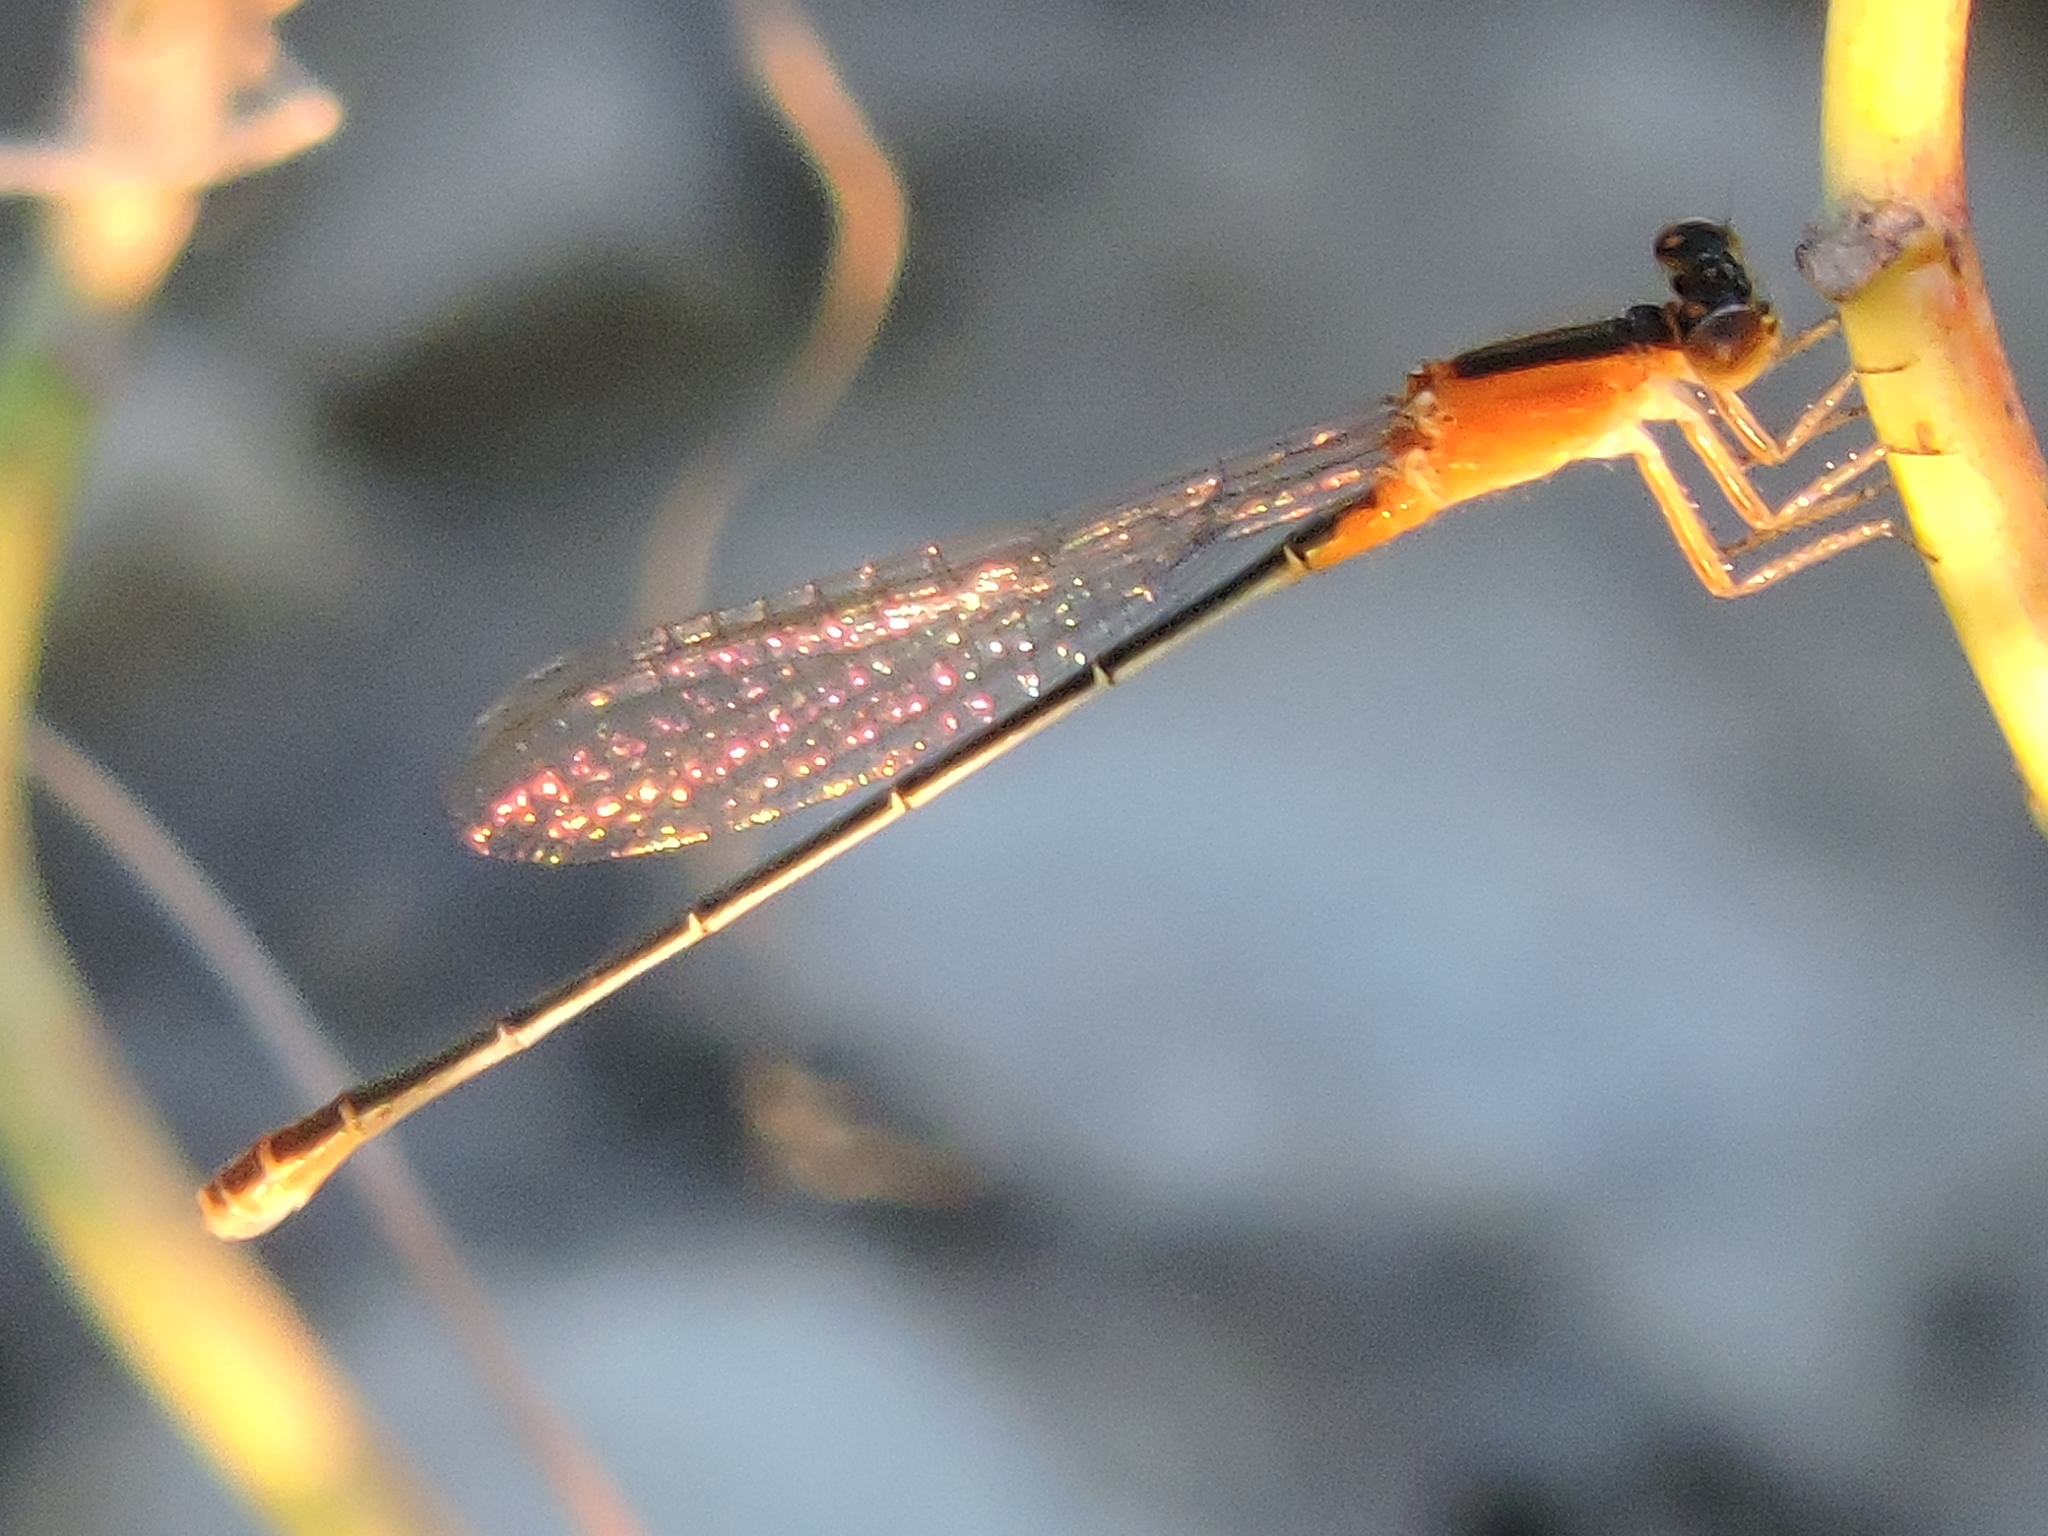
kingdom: Animalia
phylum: Arthropoda
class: Insecta
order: Odonata
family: Coenagrionidae
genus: Ischnura
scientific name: Ischnura ramburii
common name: Rambur's forktail
